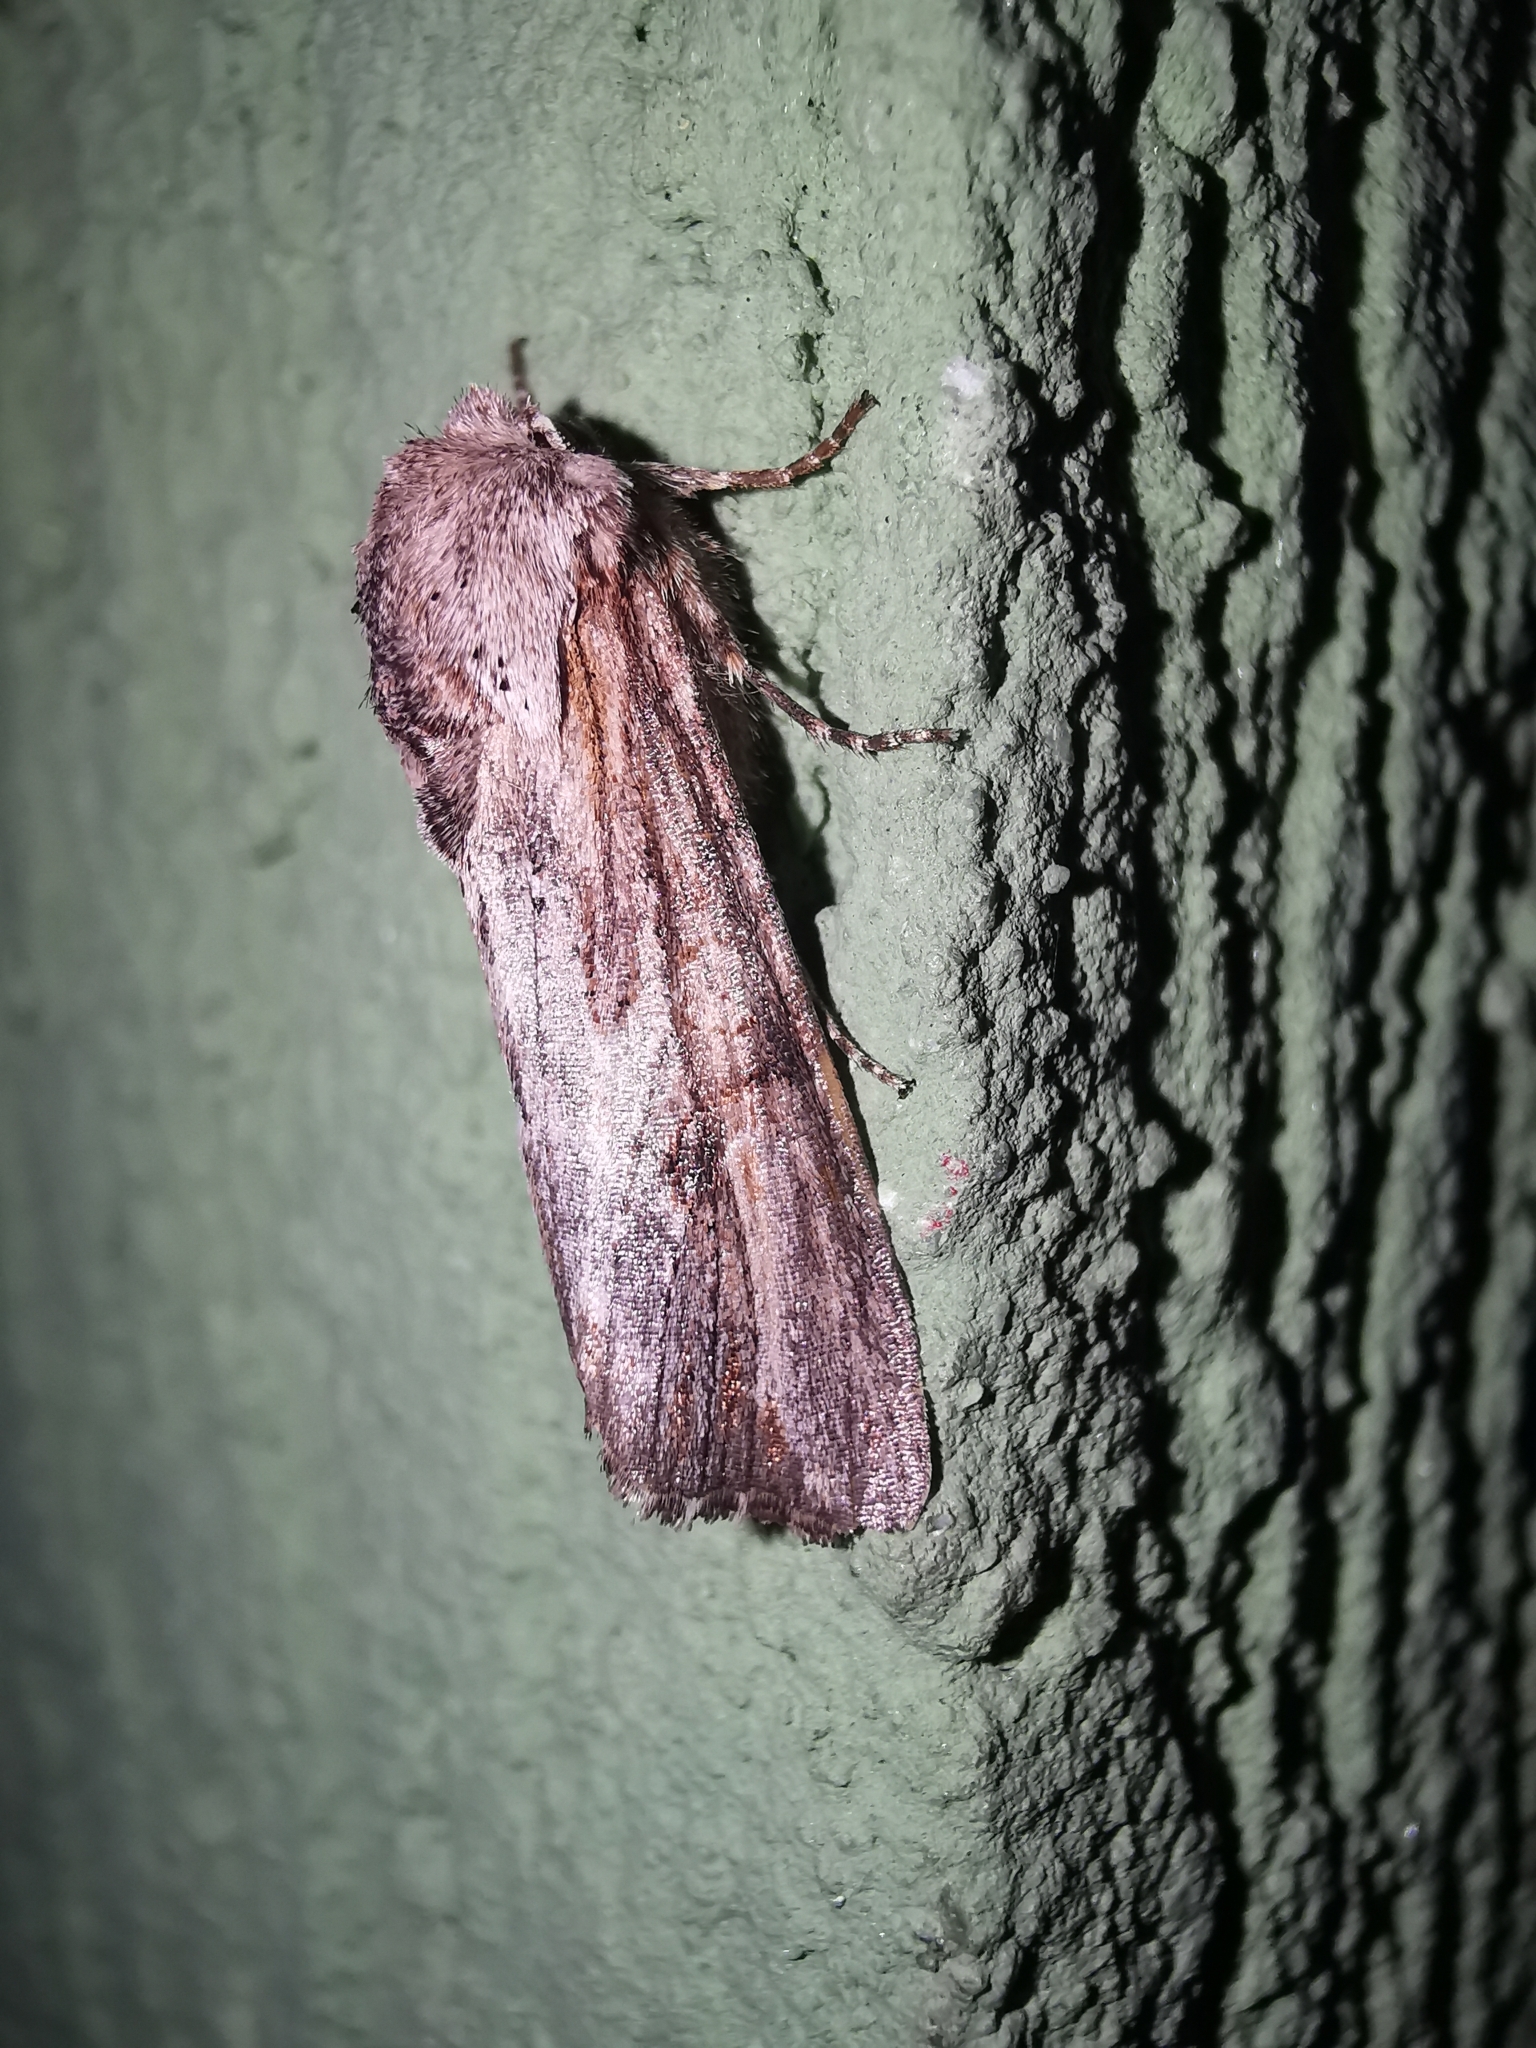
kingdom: Animalia
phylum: Arthropoda
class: Insecta
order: Lepidoptera
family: Noctuidae
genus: Egira
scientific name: Egira conspicillaris
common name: Silver cloud
